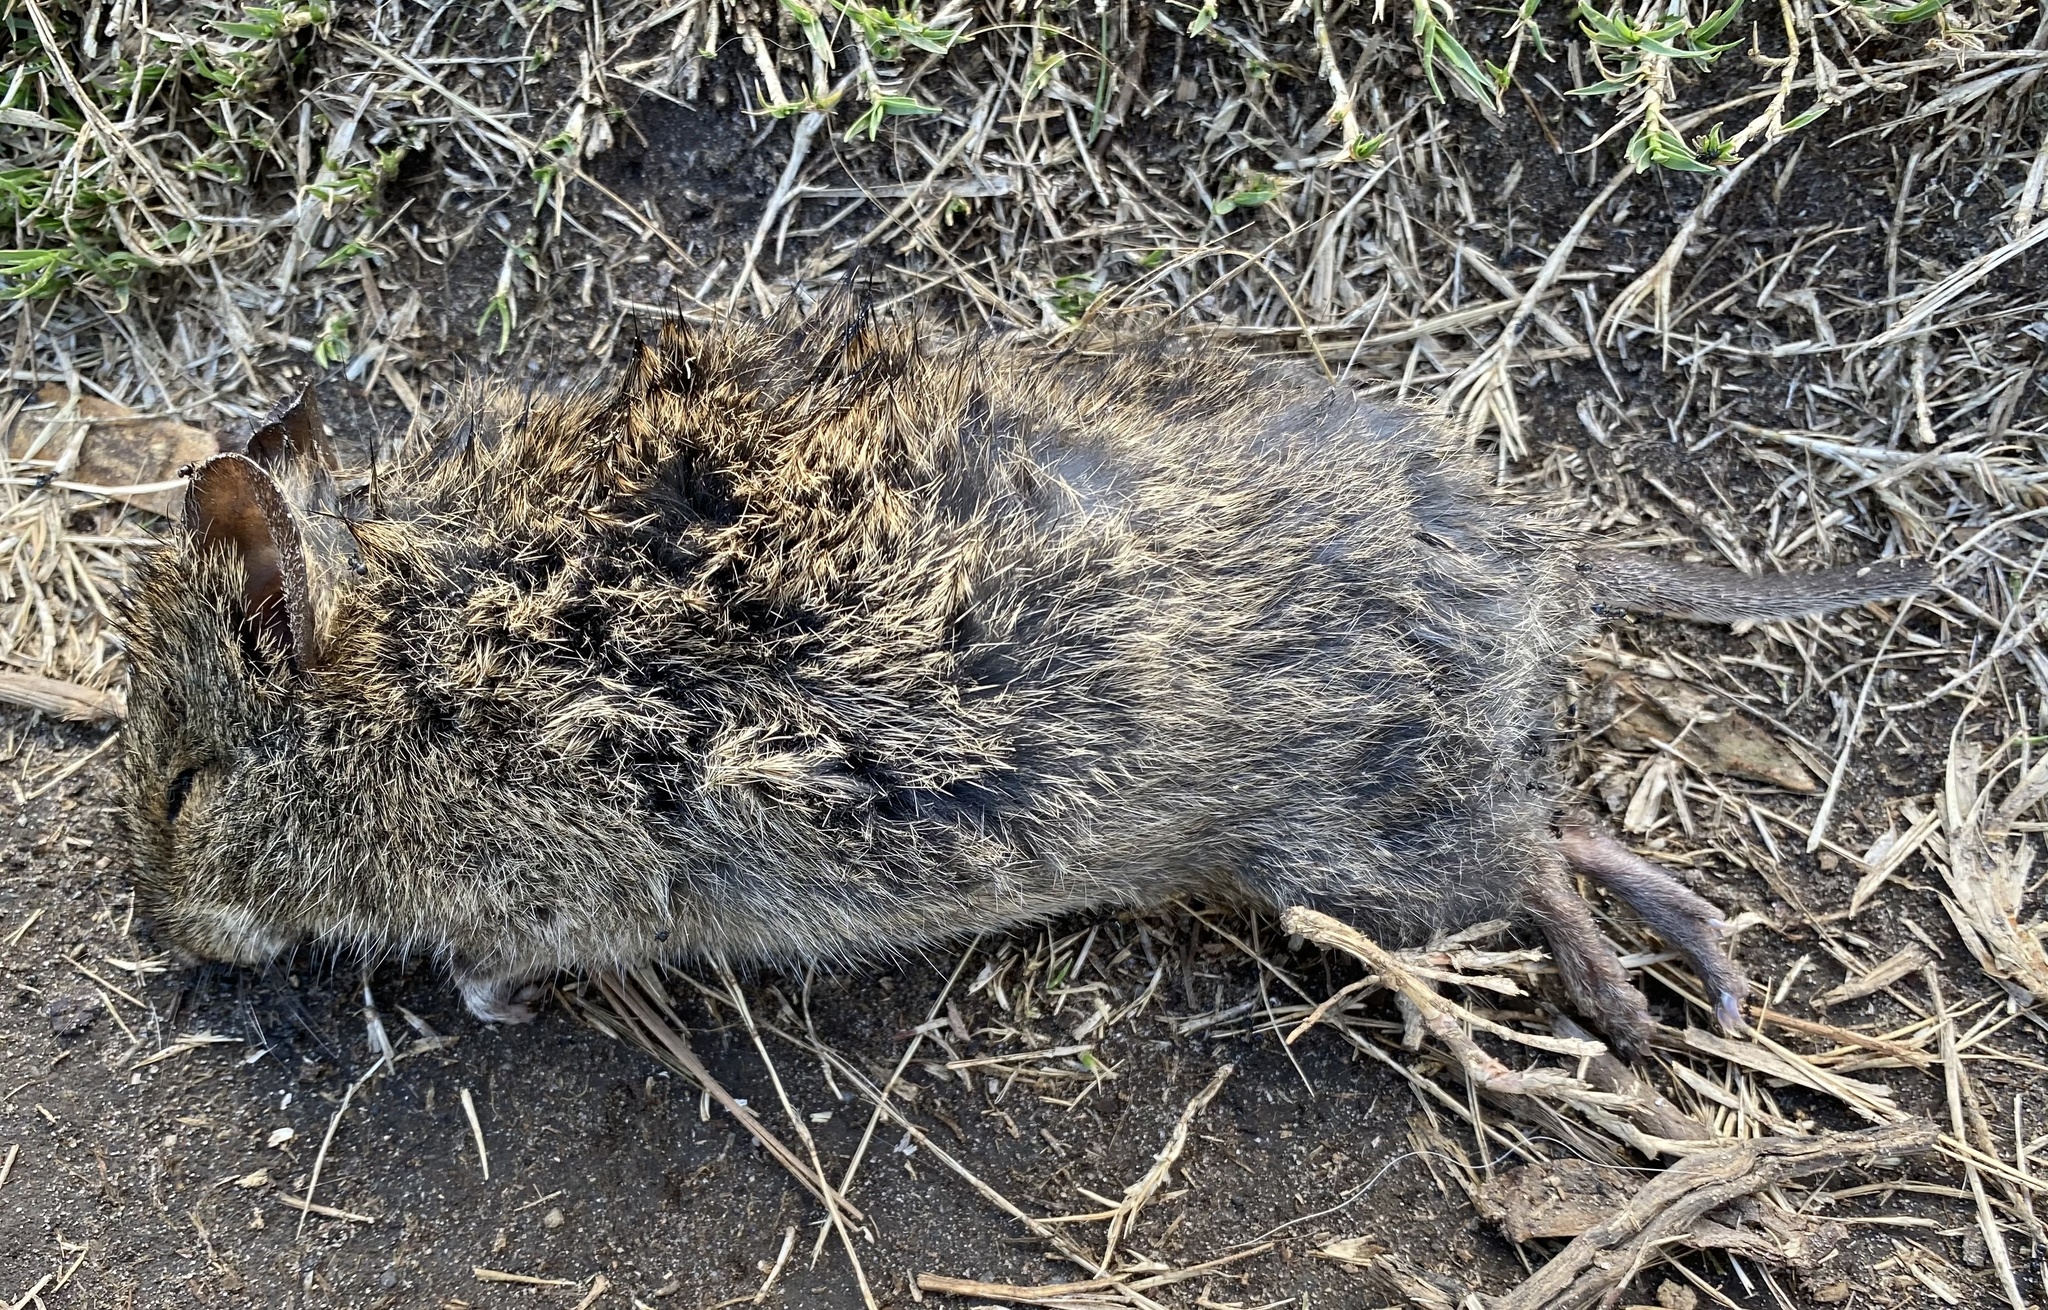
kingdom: Animalia
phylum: Chordata
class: Mammalia
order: Rodentia
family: Muridae
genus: Otomys
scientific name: Otomys irroratus
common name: Southern african vlei rat
